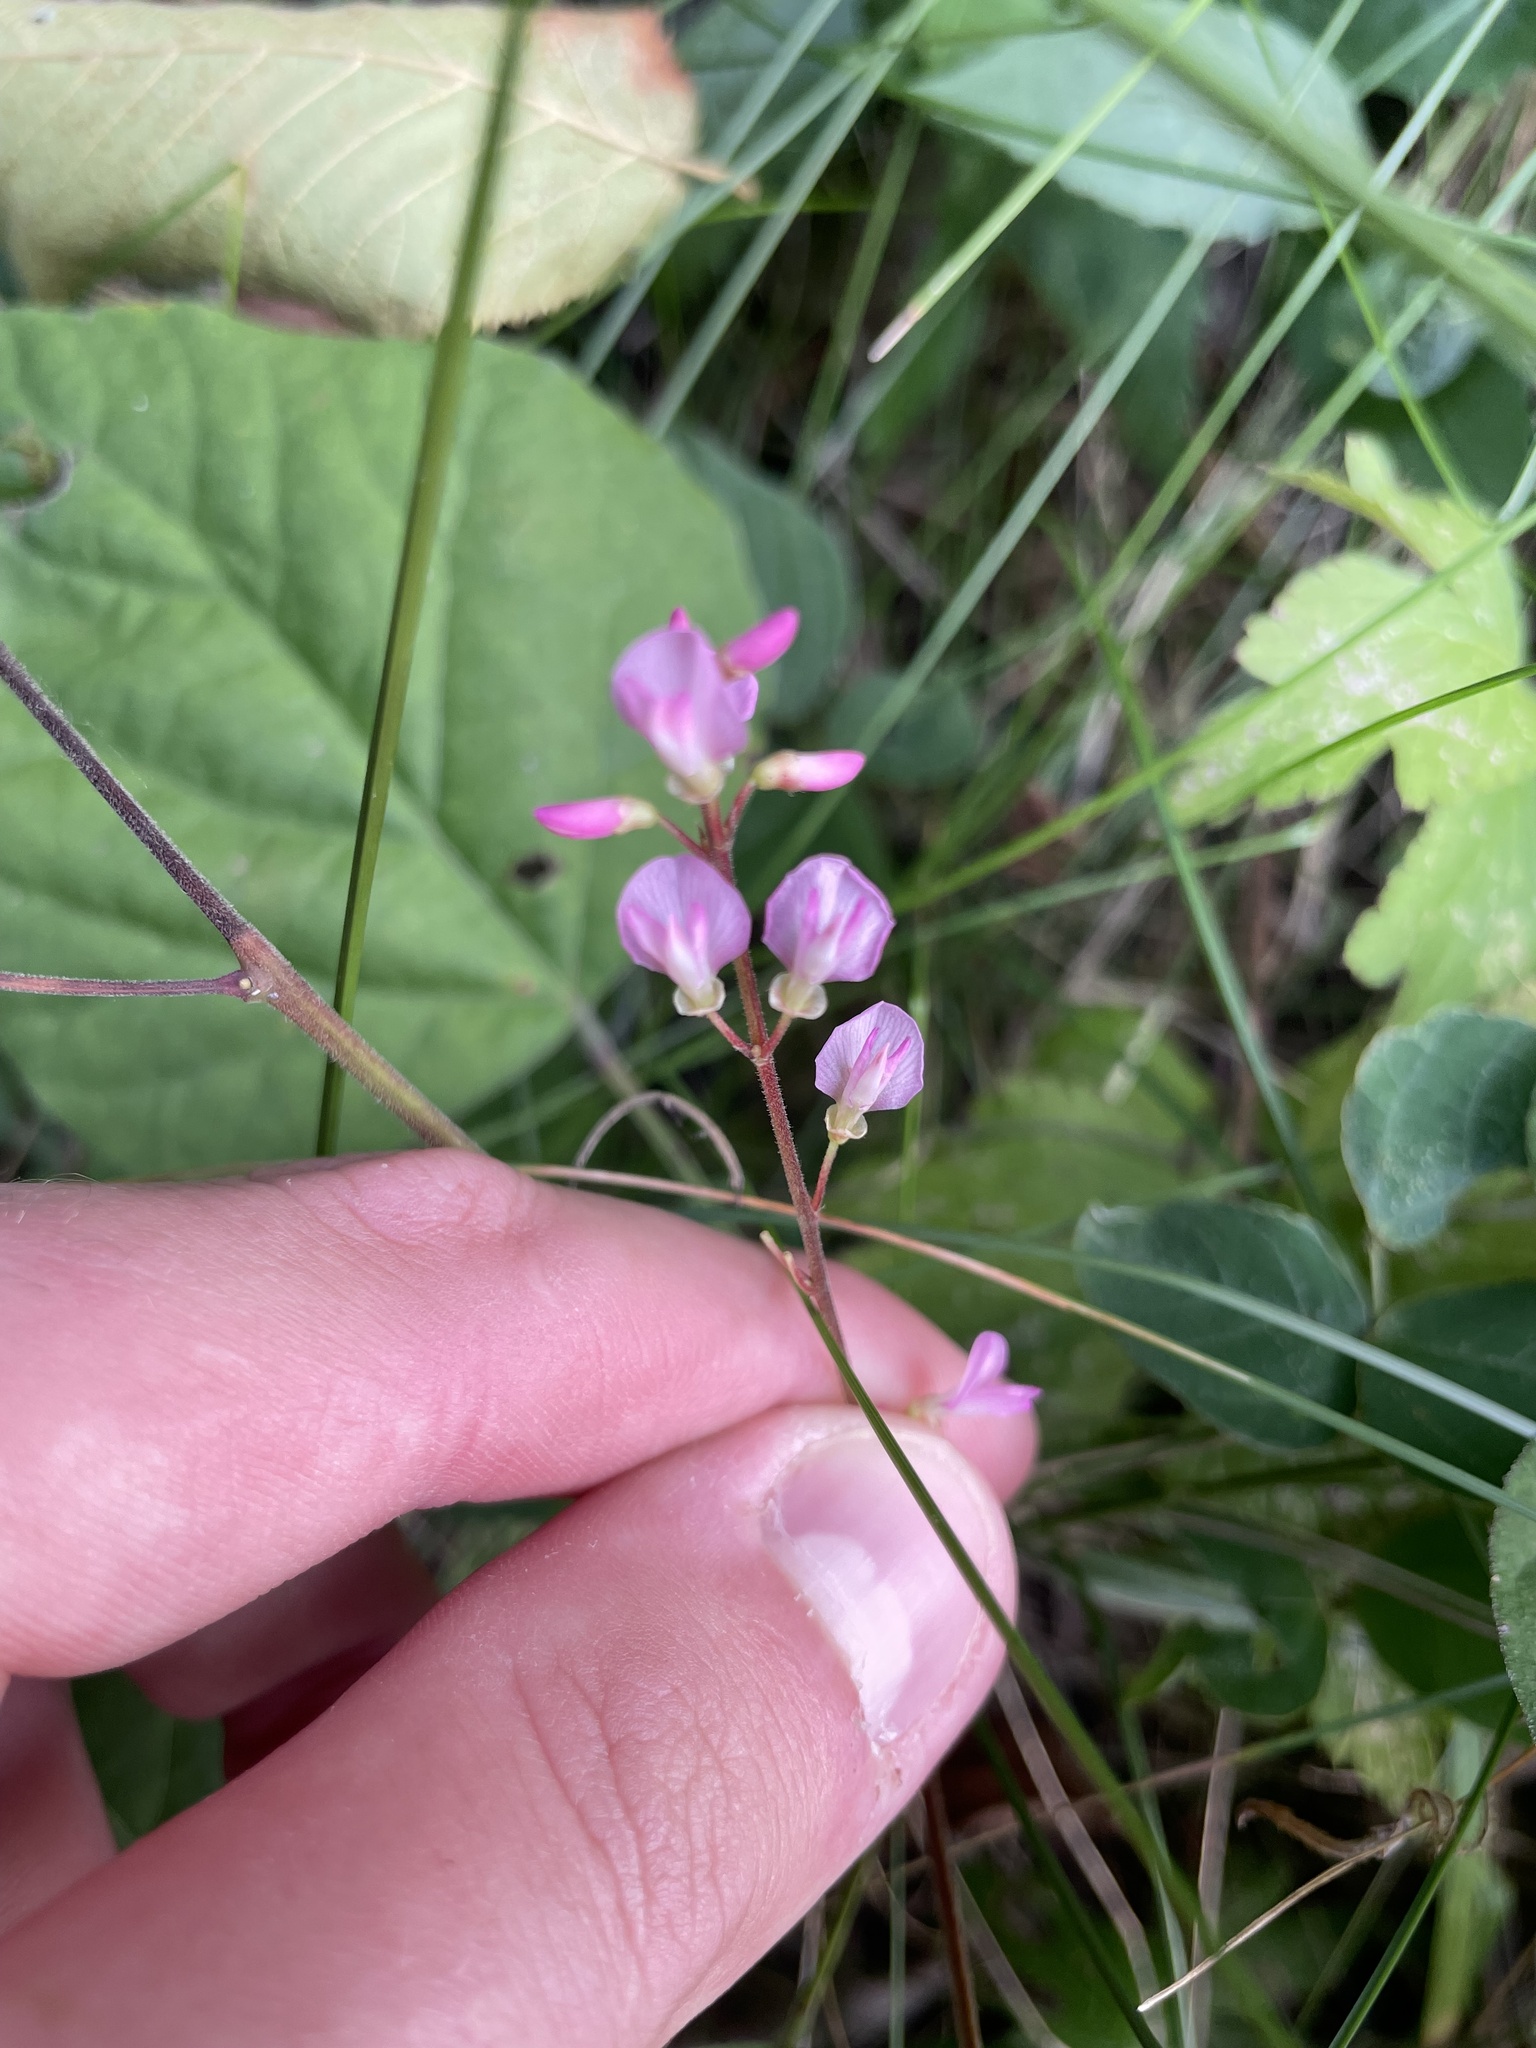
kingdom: Plantae
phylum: Tracheophyta
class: Magnoliopsida
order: Fabales
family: Fabaceae
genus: Hylodesmum
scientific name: Hylodesmum glutinosum
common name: Clustered-leaved tick-trefoil
